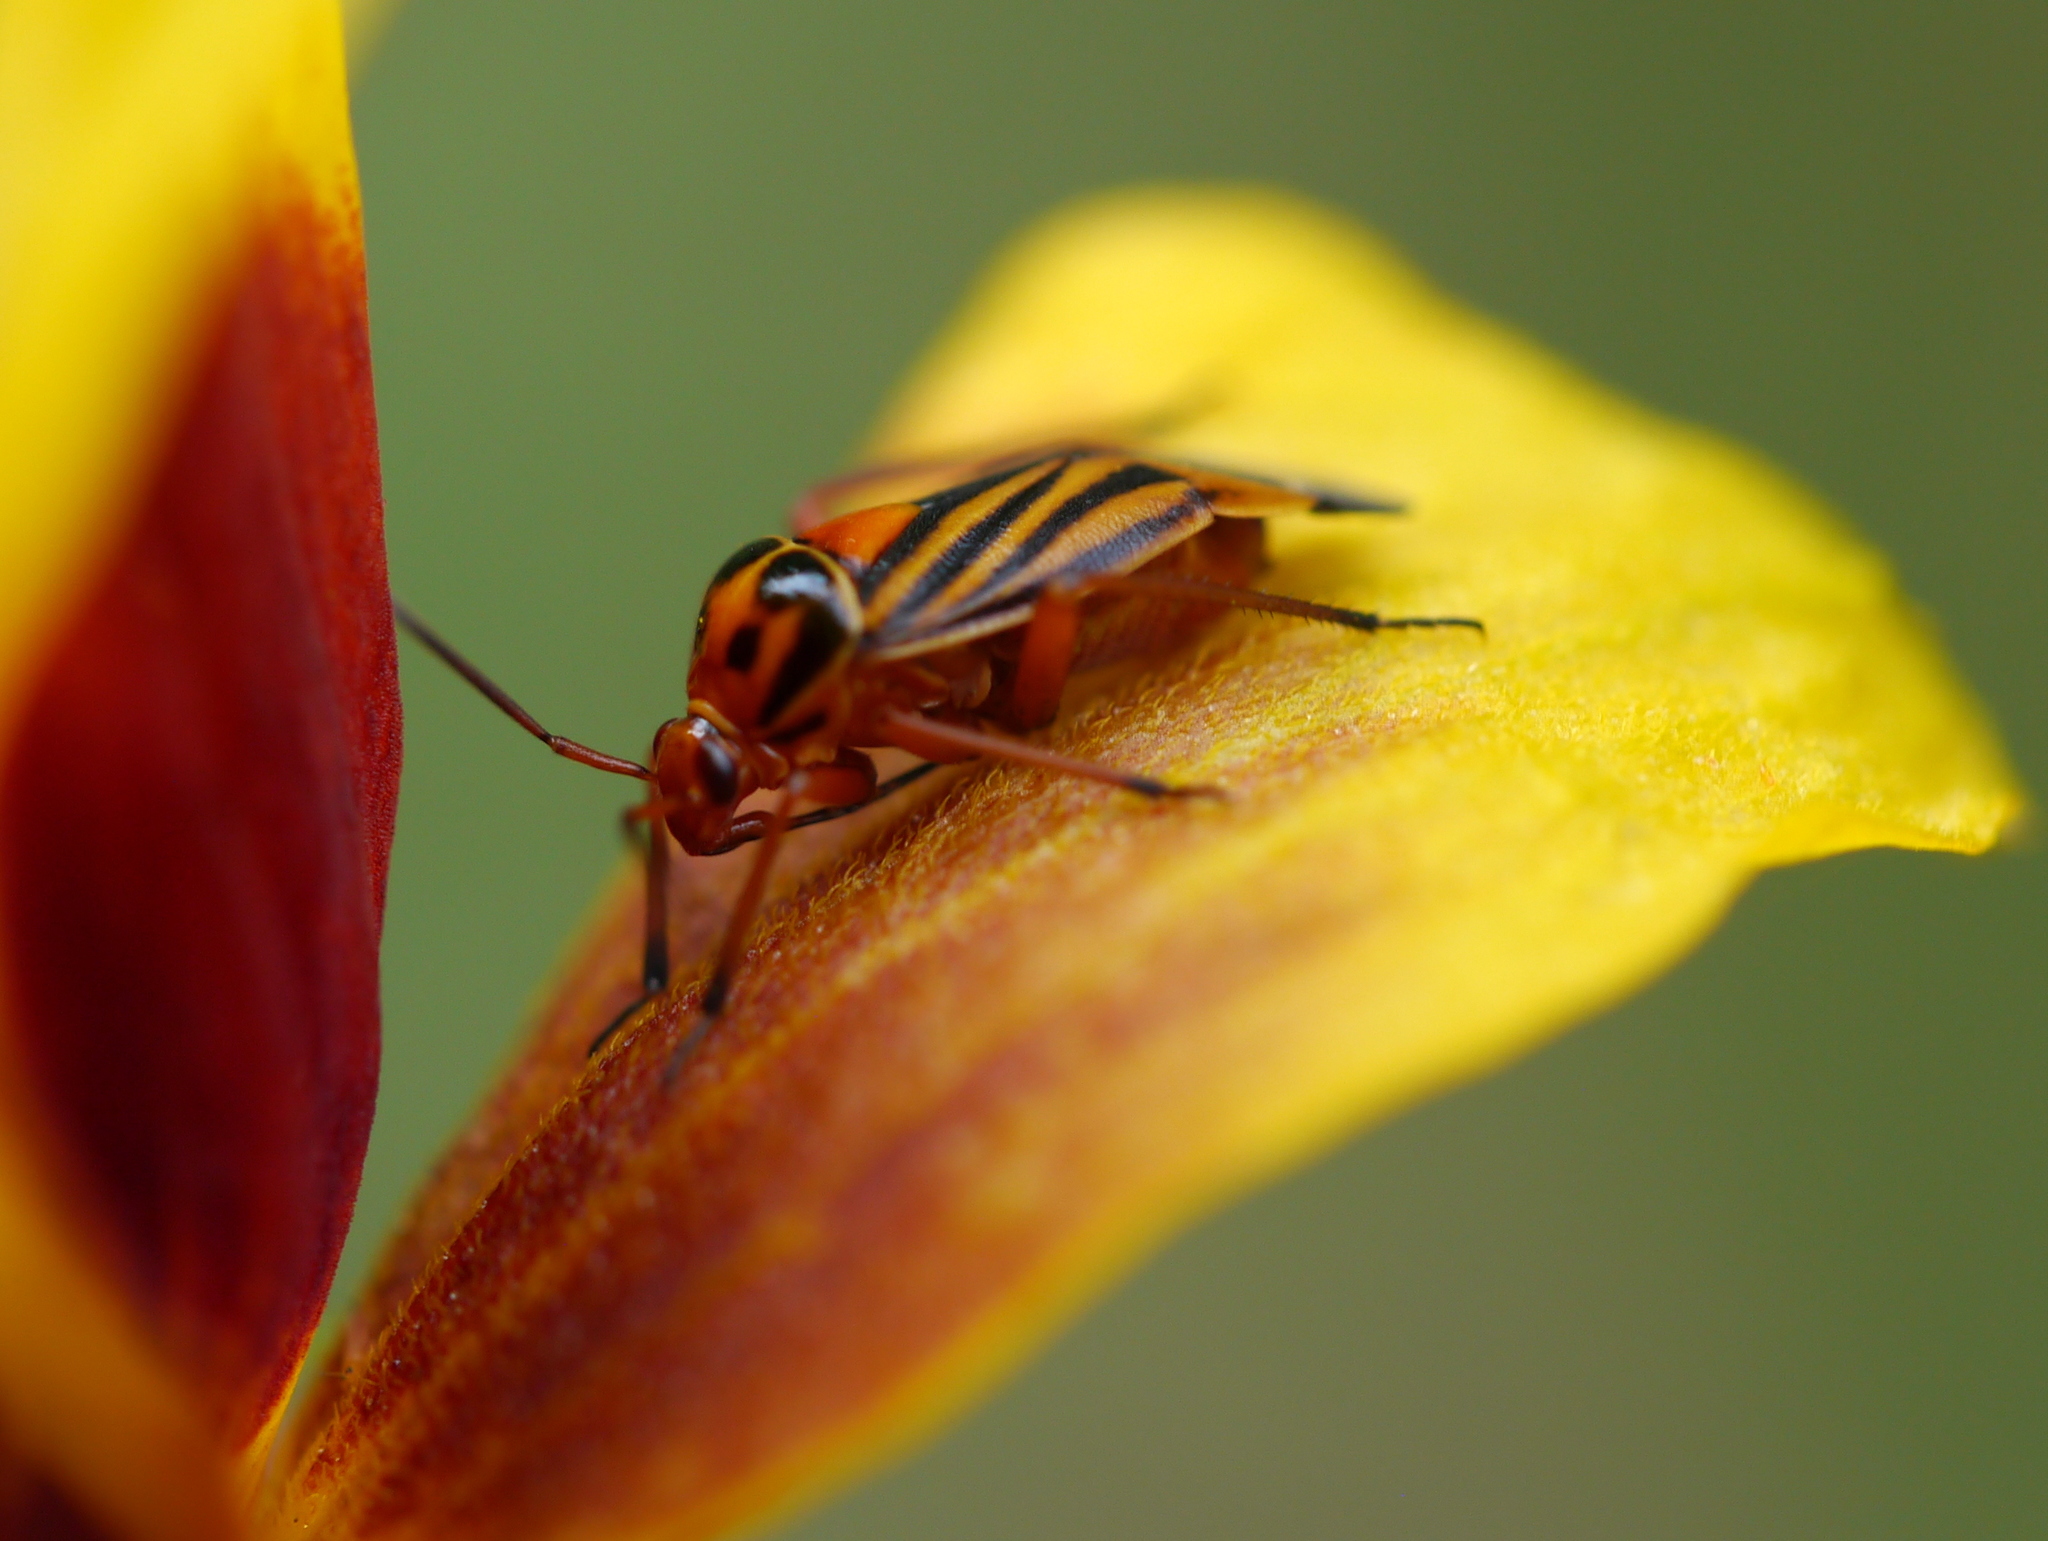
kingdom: Animalia
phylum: Arthropoda
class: Insecta
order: Hemiptera
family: Miridae
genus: Calocoris
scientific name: Calocoris barberi
